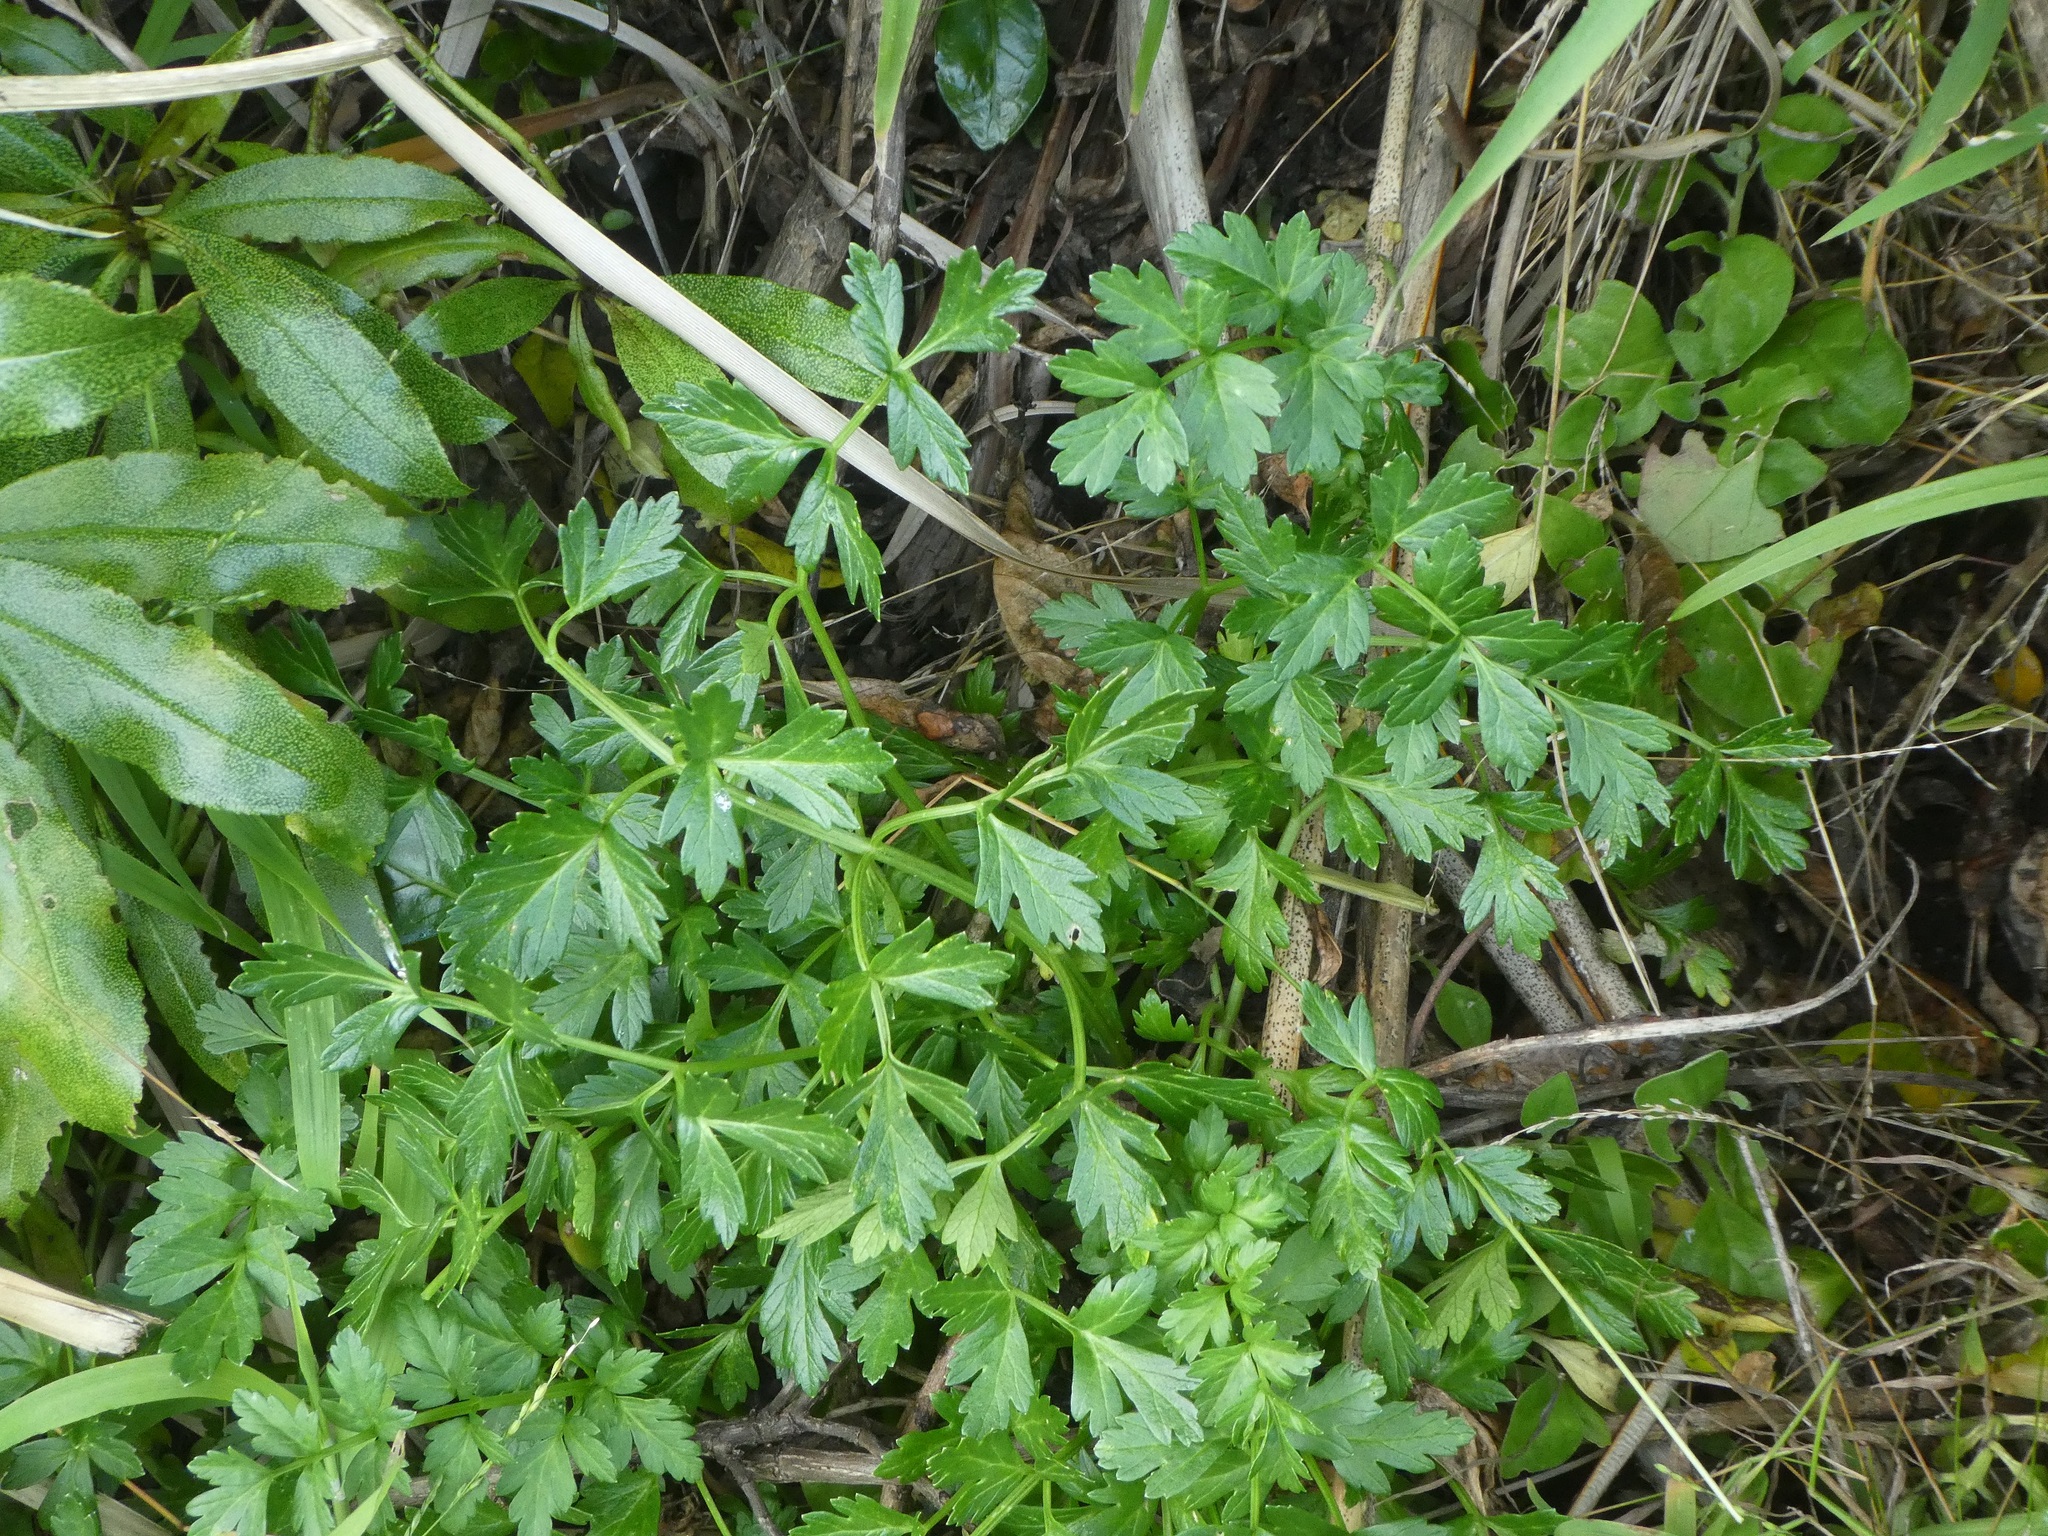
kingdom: Plantae
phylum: Tracheophyta
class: Magnoliopsida
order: Apiales
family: Apiaceae
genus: Apium
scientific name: Apium prostratum
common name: Prostrate marshwort
